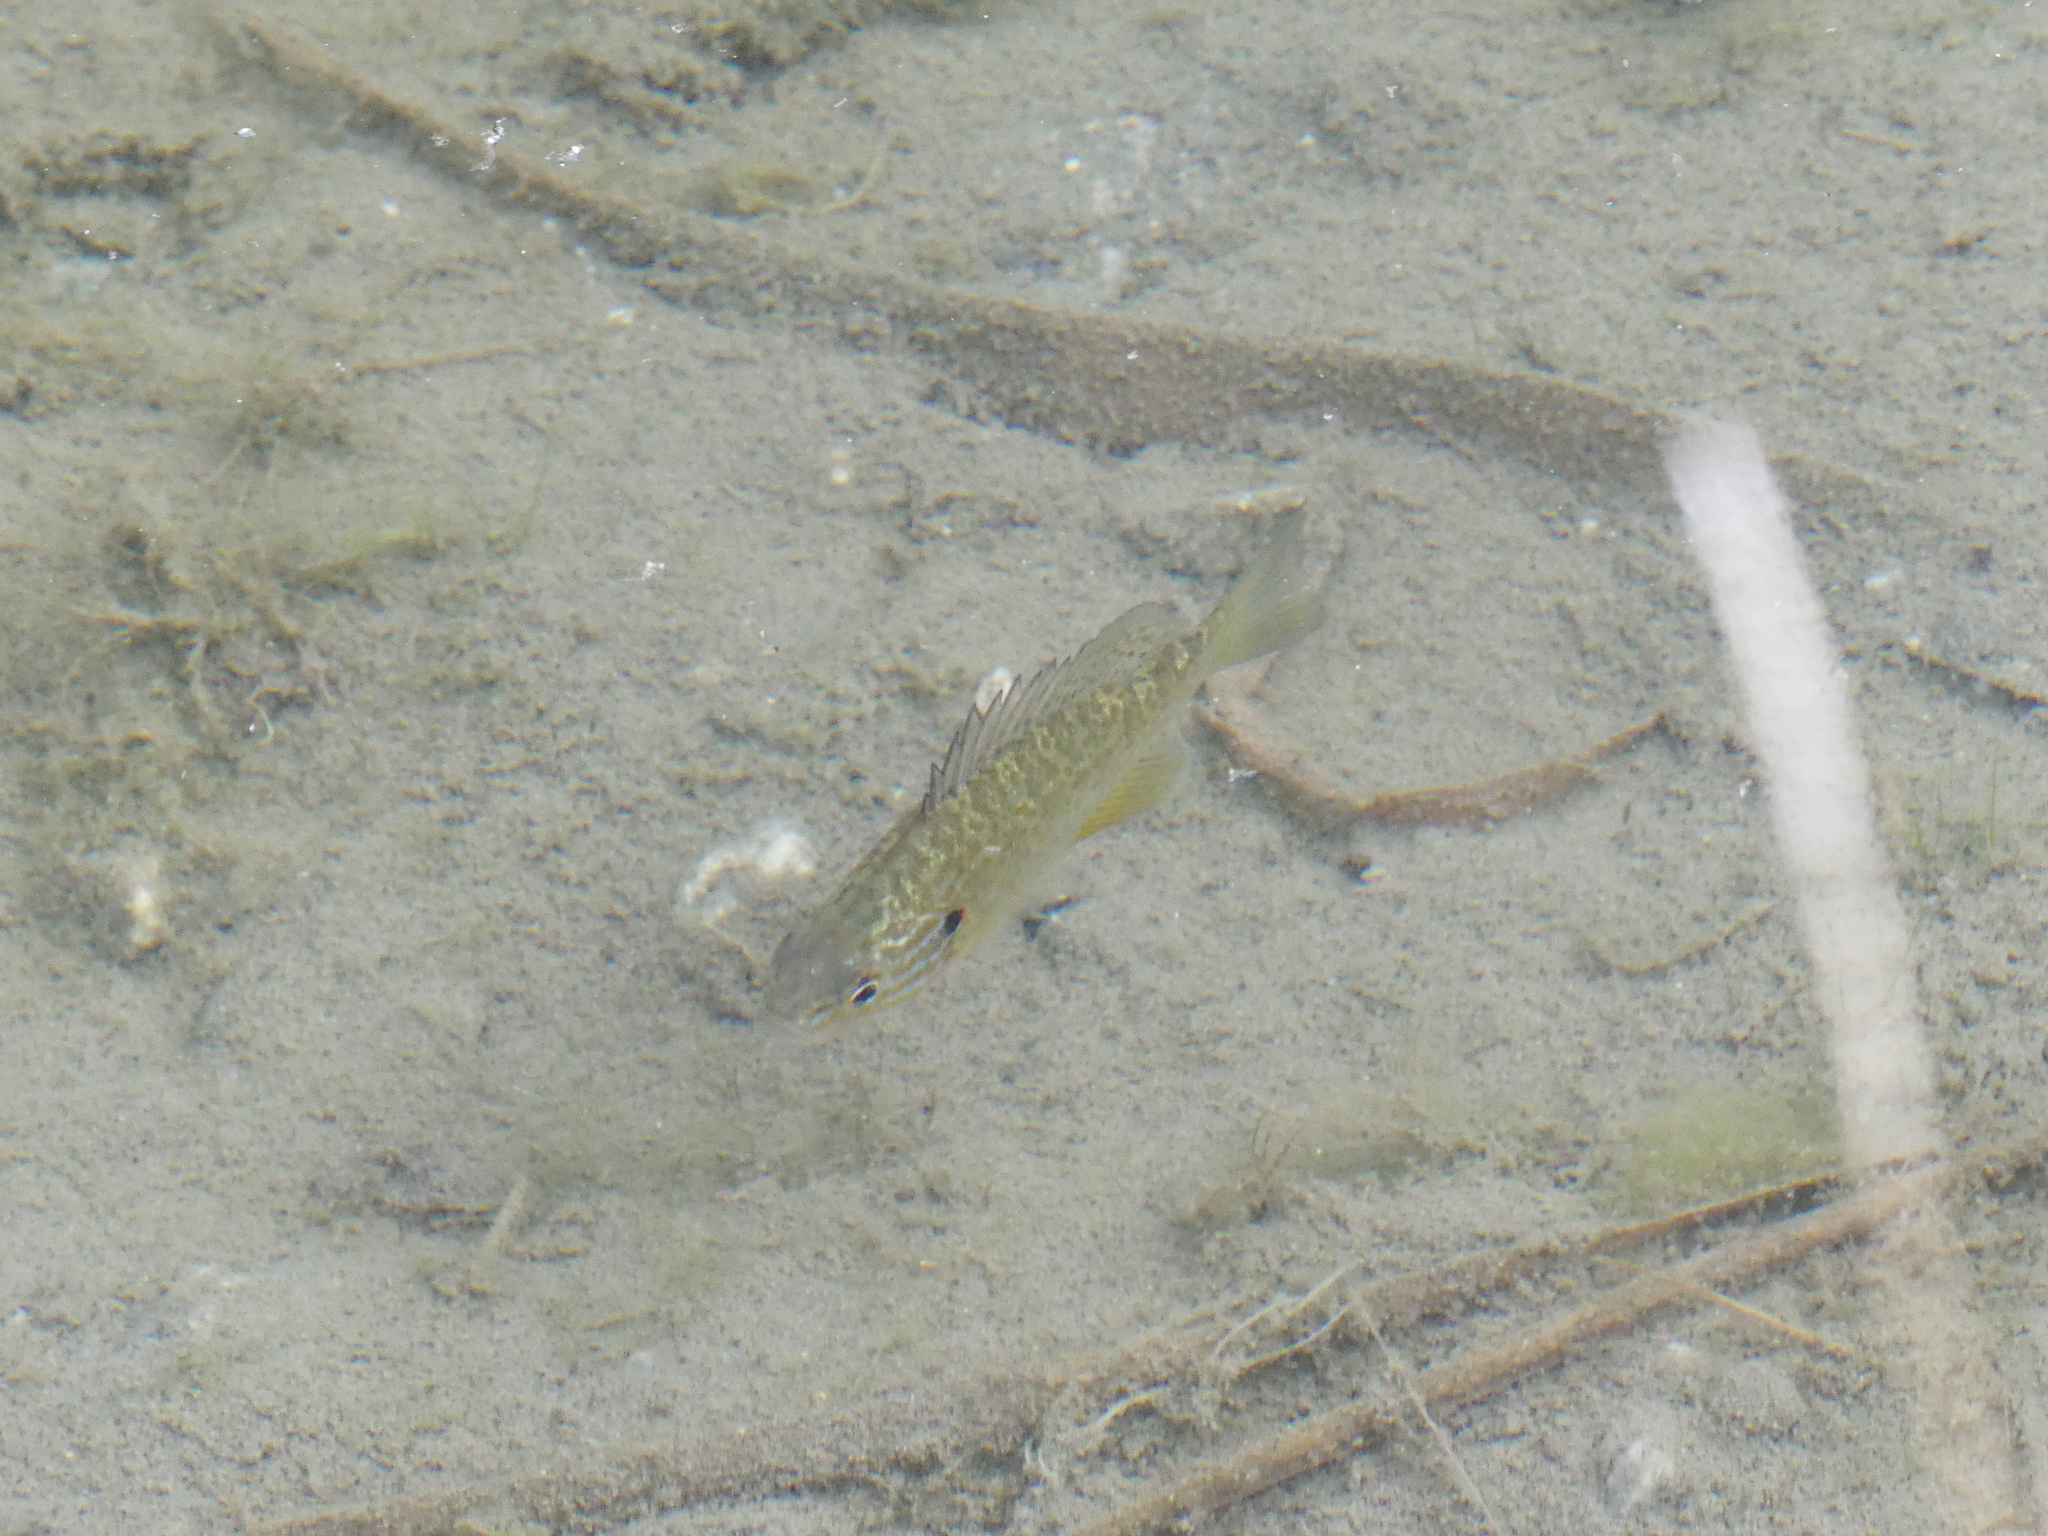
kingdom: Animalia
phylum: Chordata
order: Perciformes
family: Centrarchidae
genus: Lepomis
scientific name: Lepomis gibbosus
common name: Pumpkinseed
